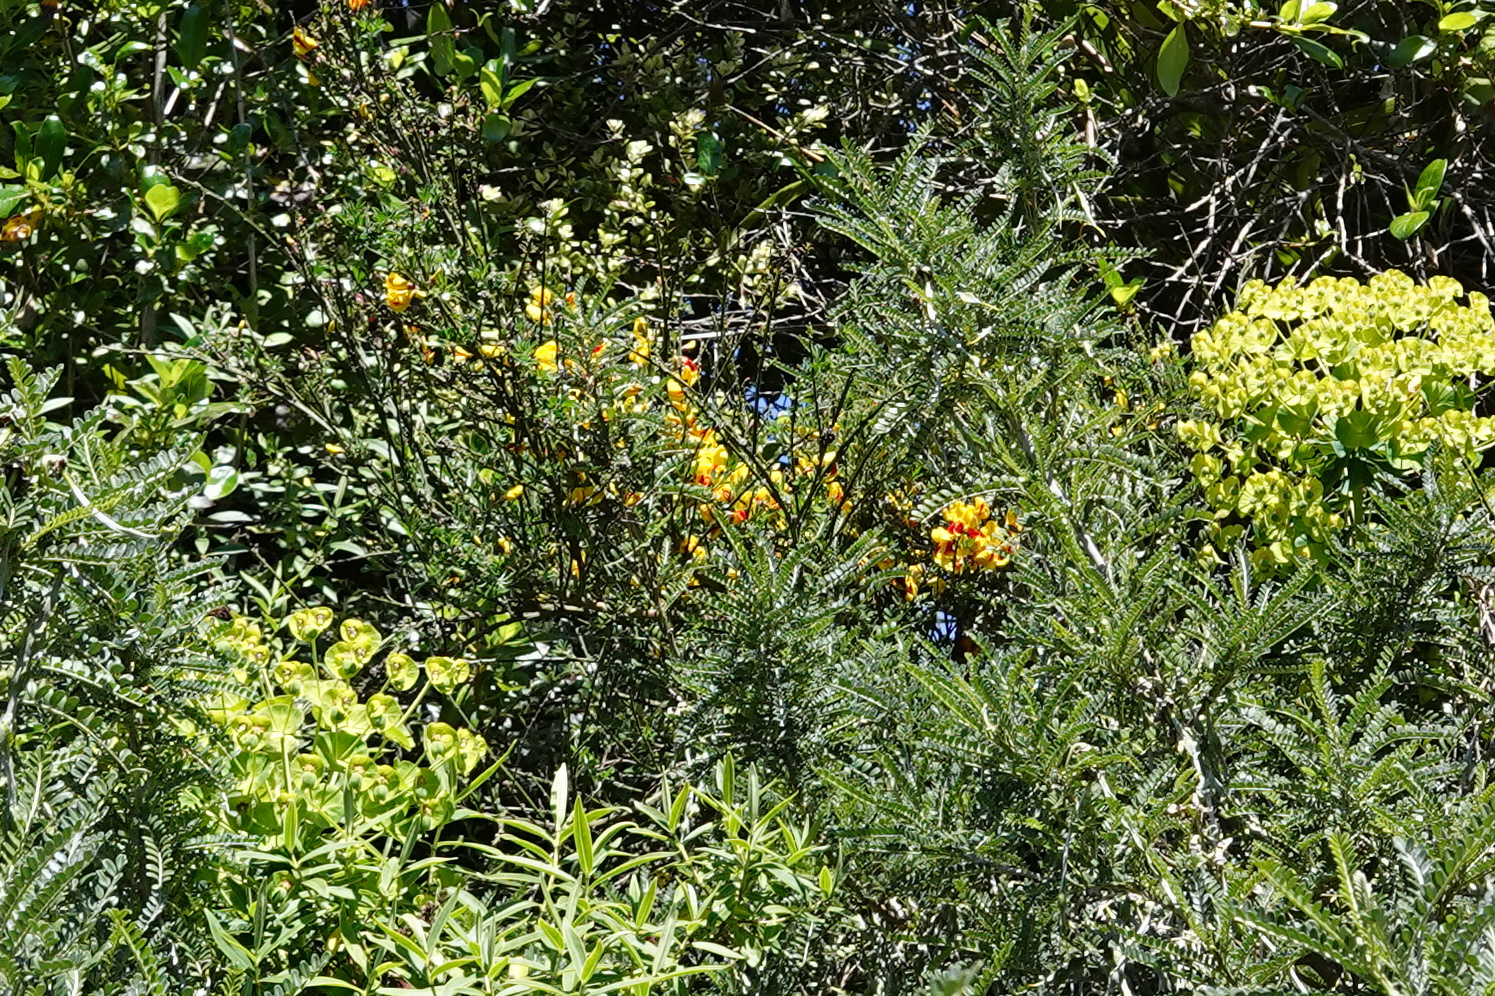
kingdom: Plantae
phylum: Tracheophyta
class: Magnoliopsida
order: Fabales
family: Fabaceae
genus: Cytisus
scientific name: Cytisus scoparius
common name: Scotch broom
